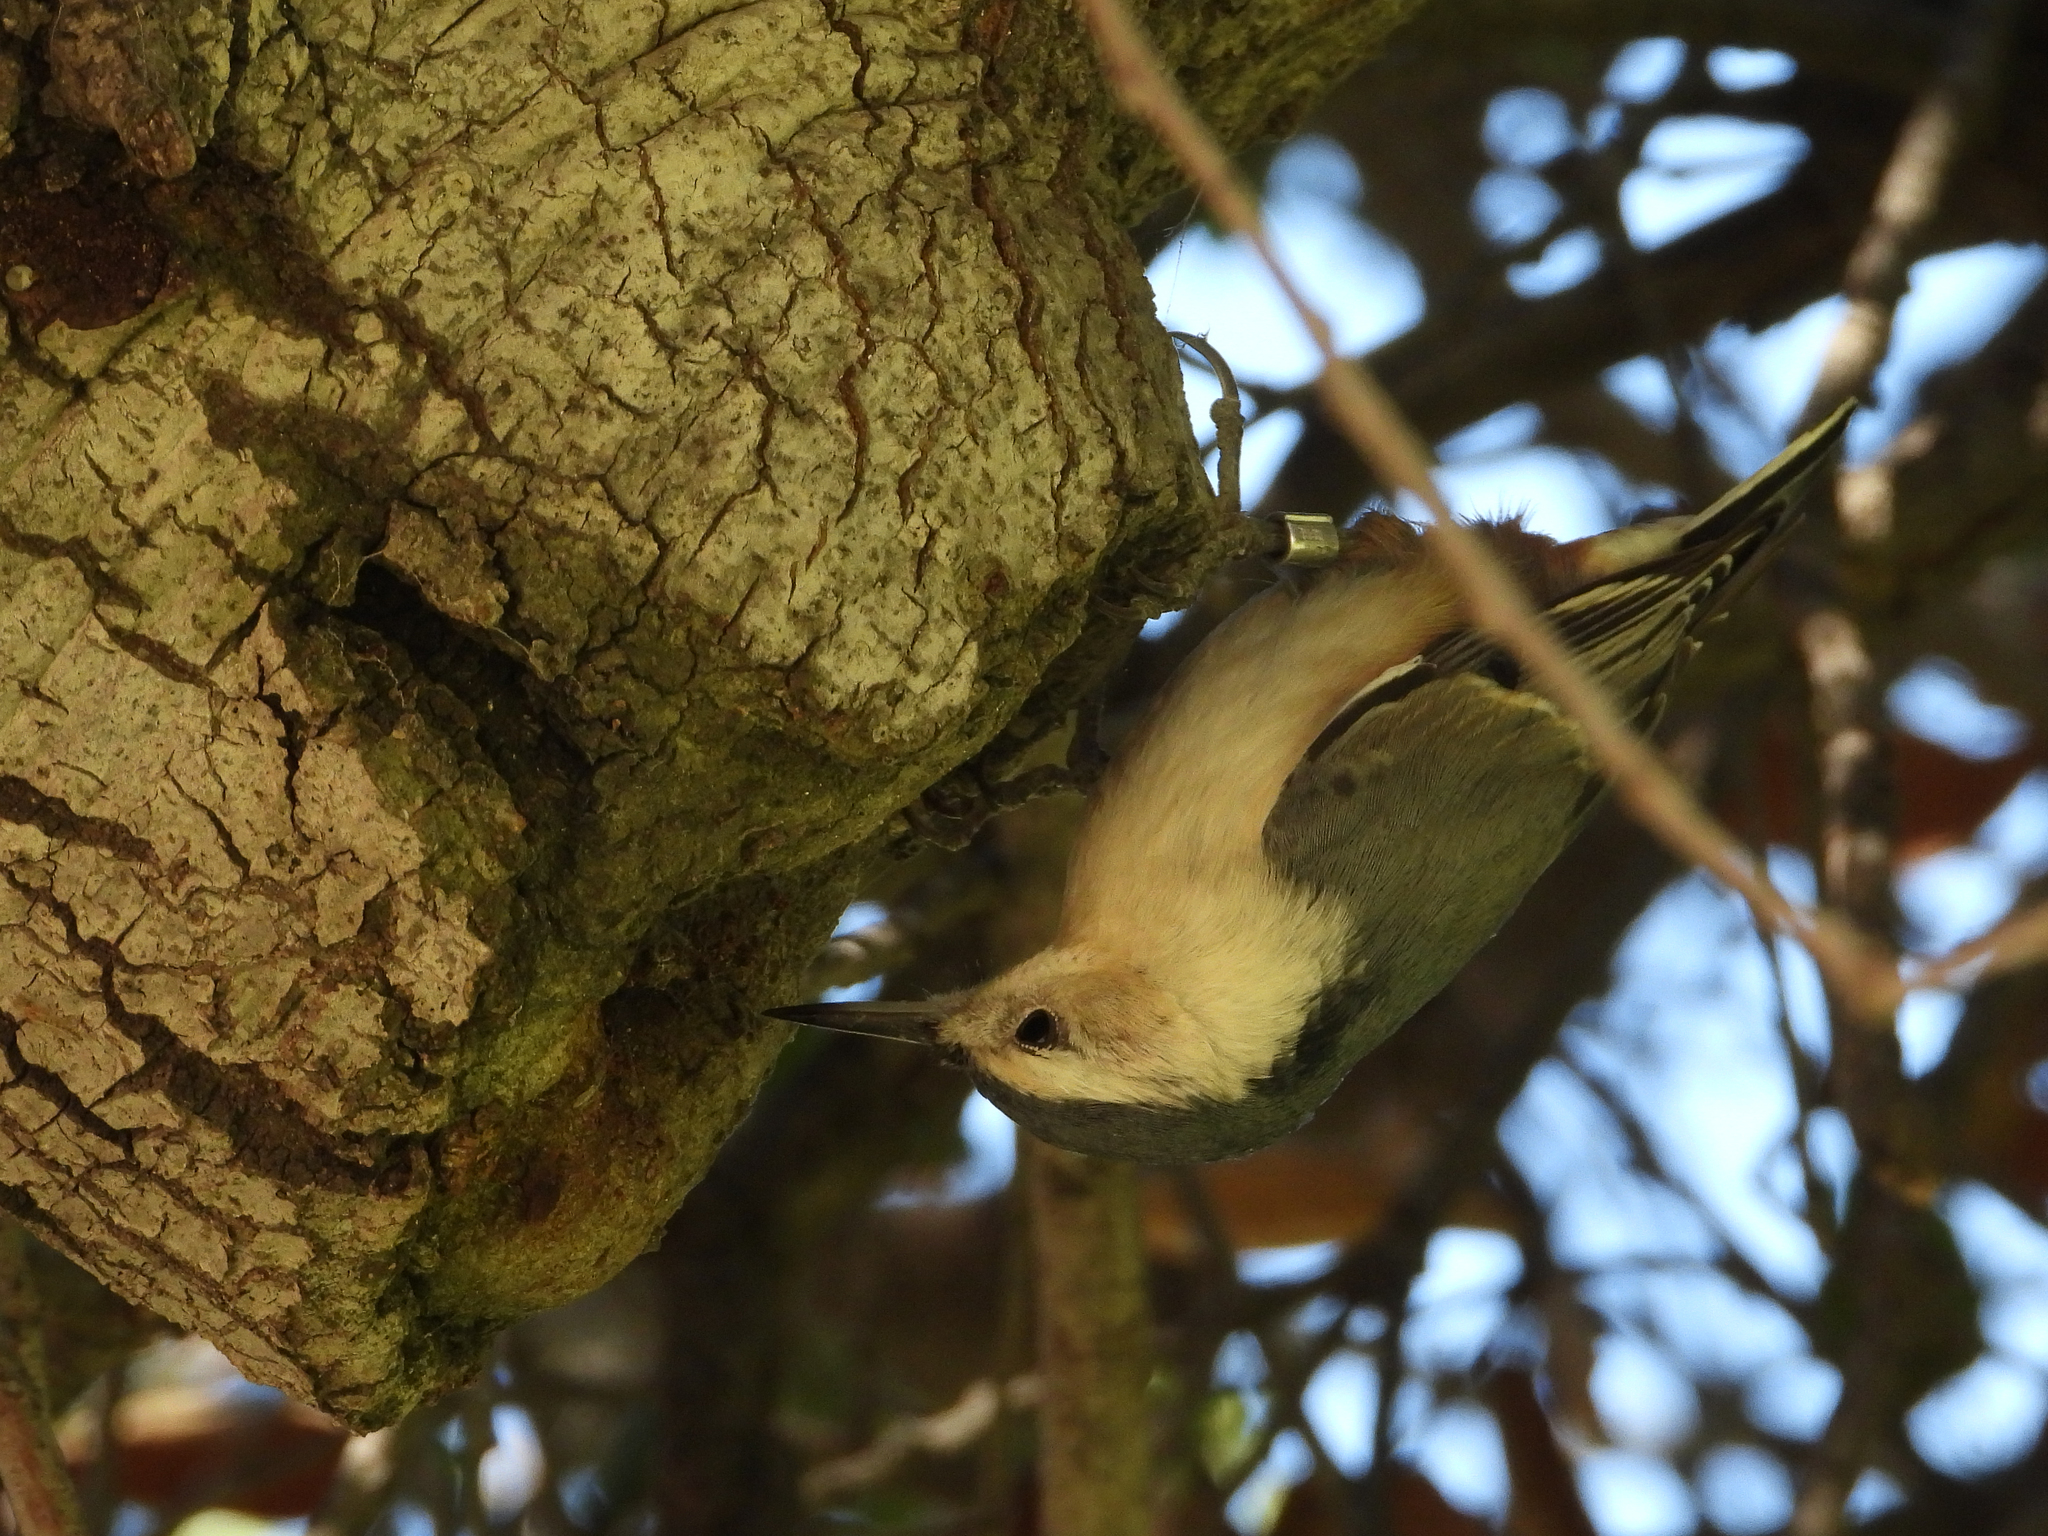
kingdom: Animalia
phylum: Chordata
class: Aves
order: Passeriformes
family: Sittidae
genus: Sitta
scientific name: Sitta carolinensis
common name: White-breasted nuthatch
